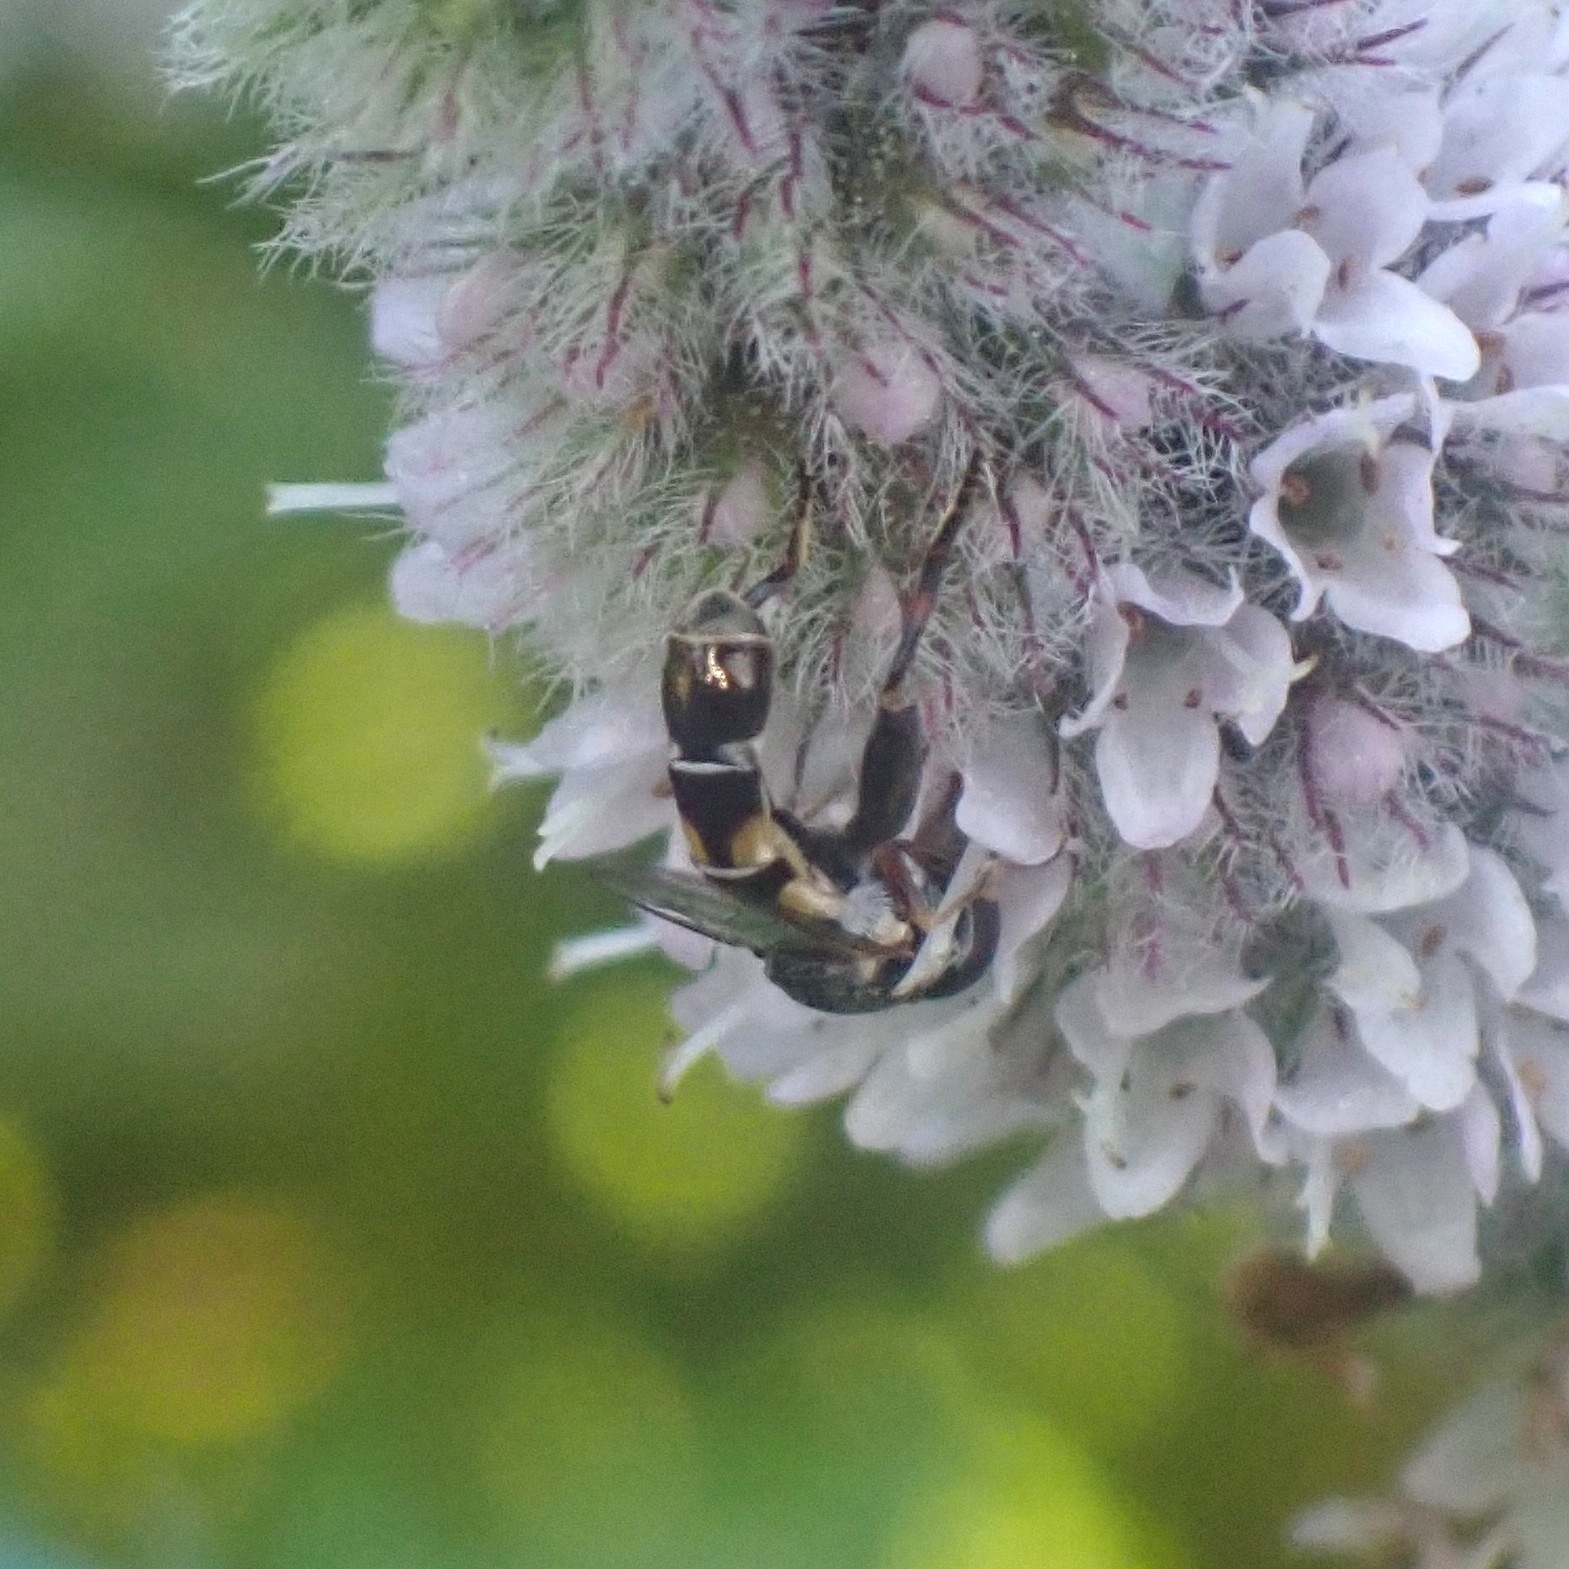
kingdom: Animalia
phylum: Arthropoda
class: Insecta
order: Diptera
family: Syrphidae
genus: Syritta
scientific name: Syritta pipiens
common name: Hover fly
